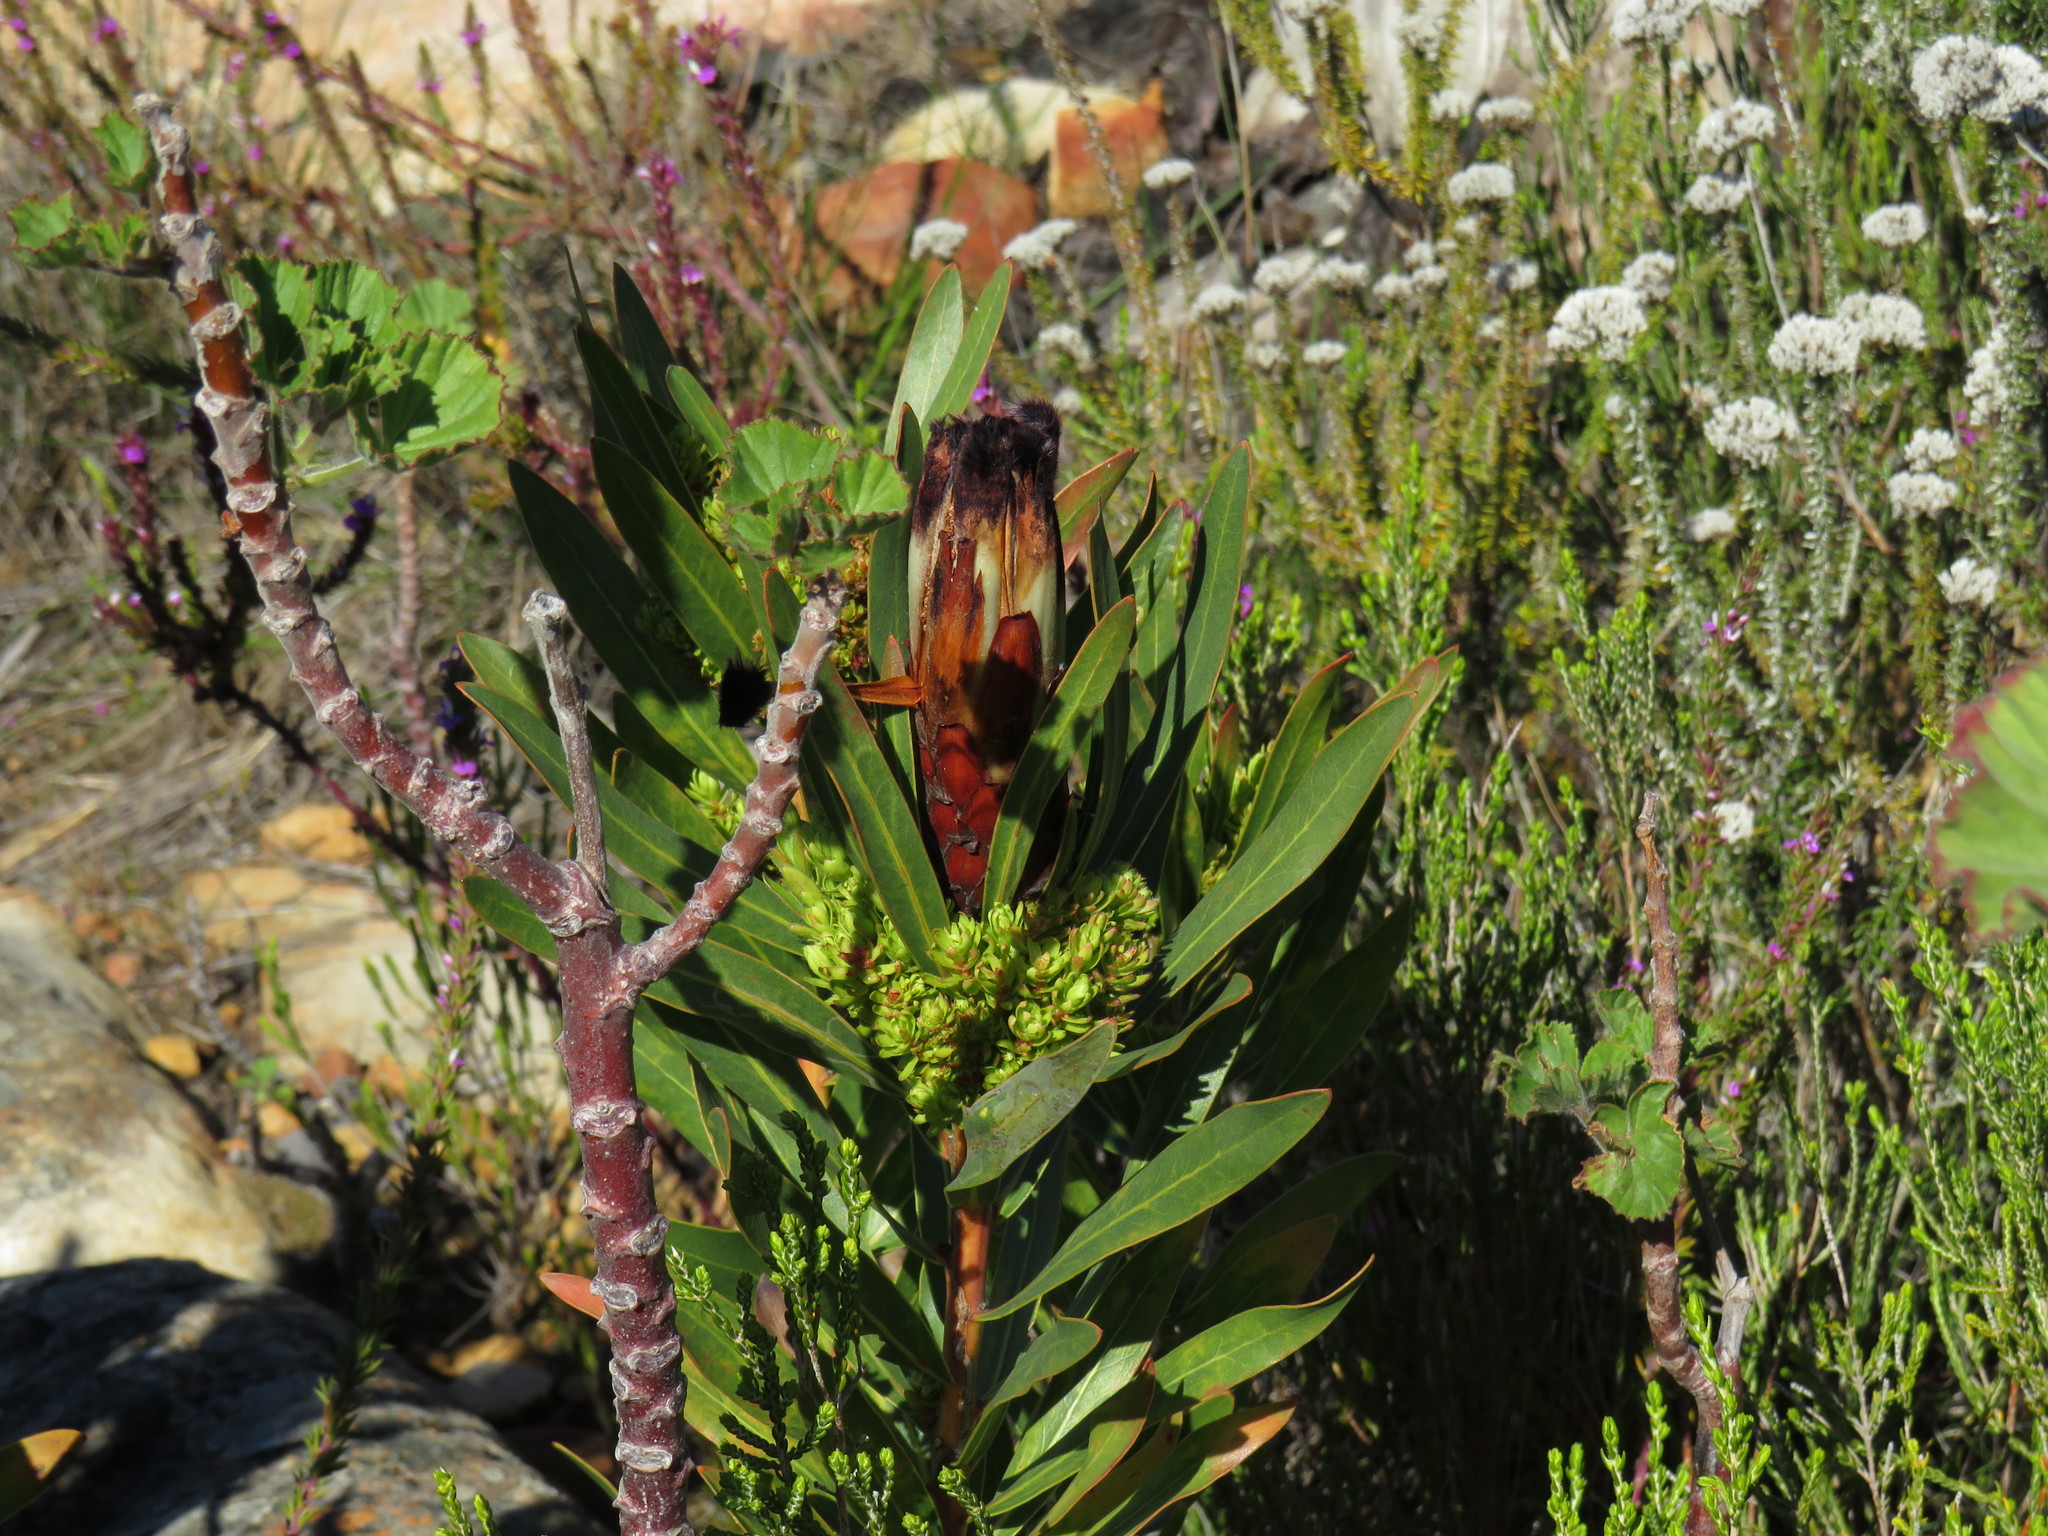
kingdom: Bacteria
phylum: Firmicutes
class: Bacilli
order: Acholeplasmatales
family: Acholeplasmataceae
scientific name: Acholeplasmataceae
